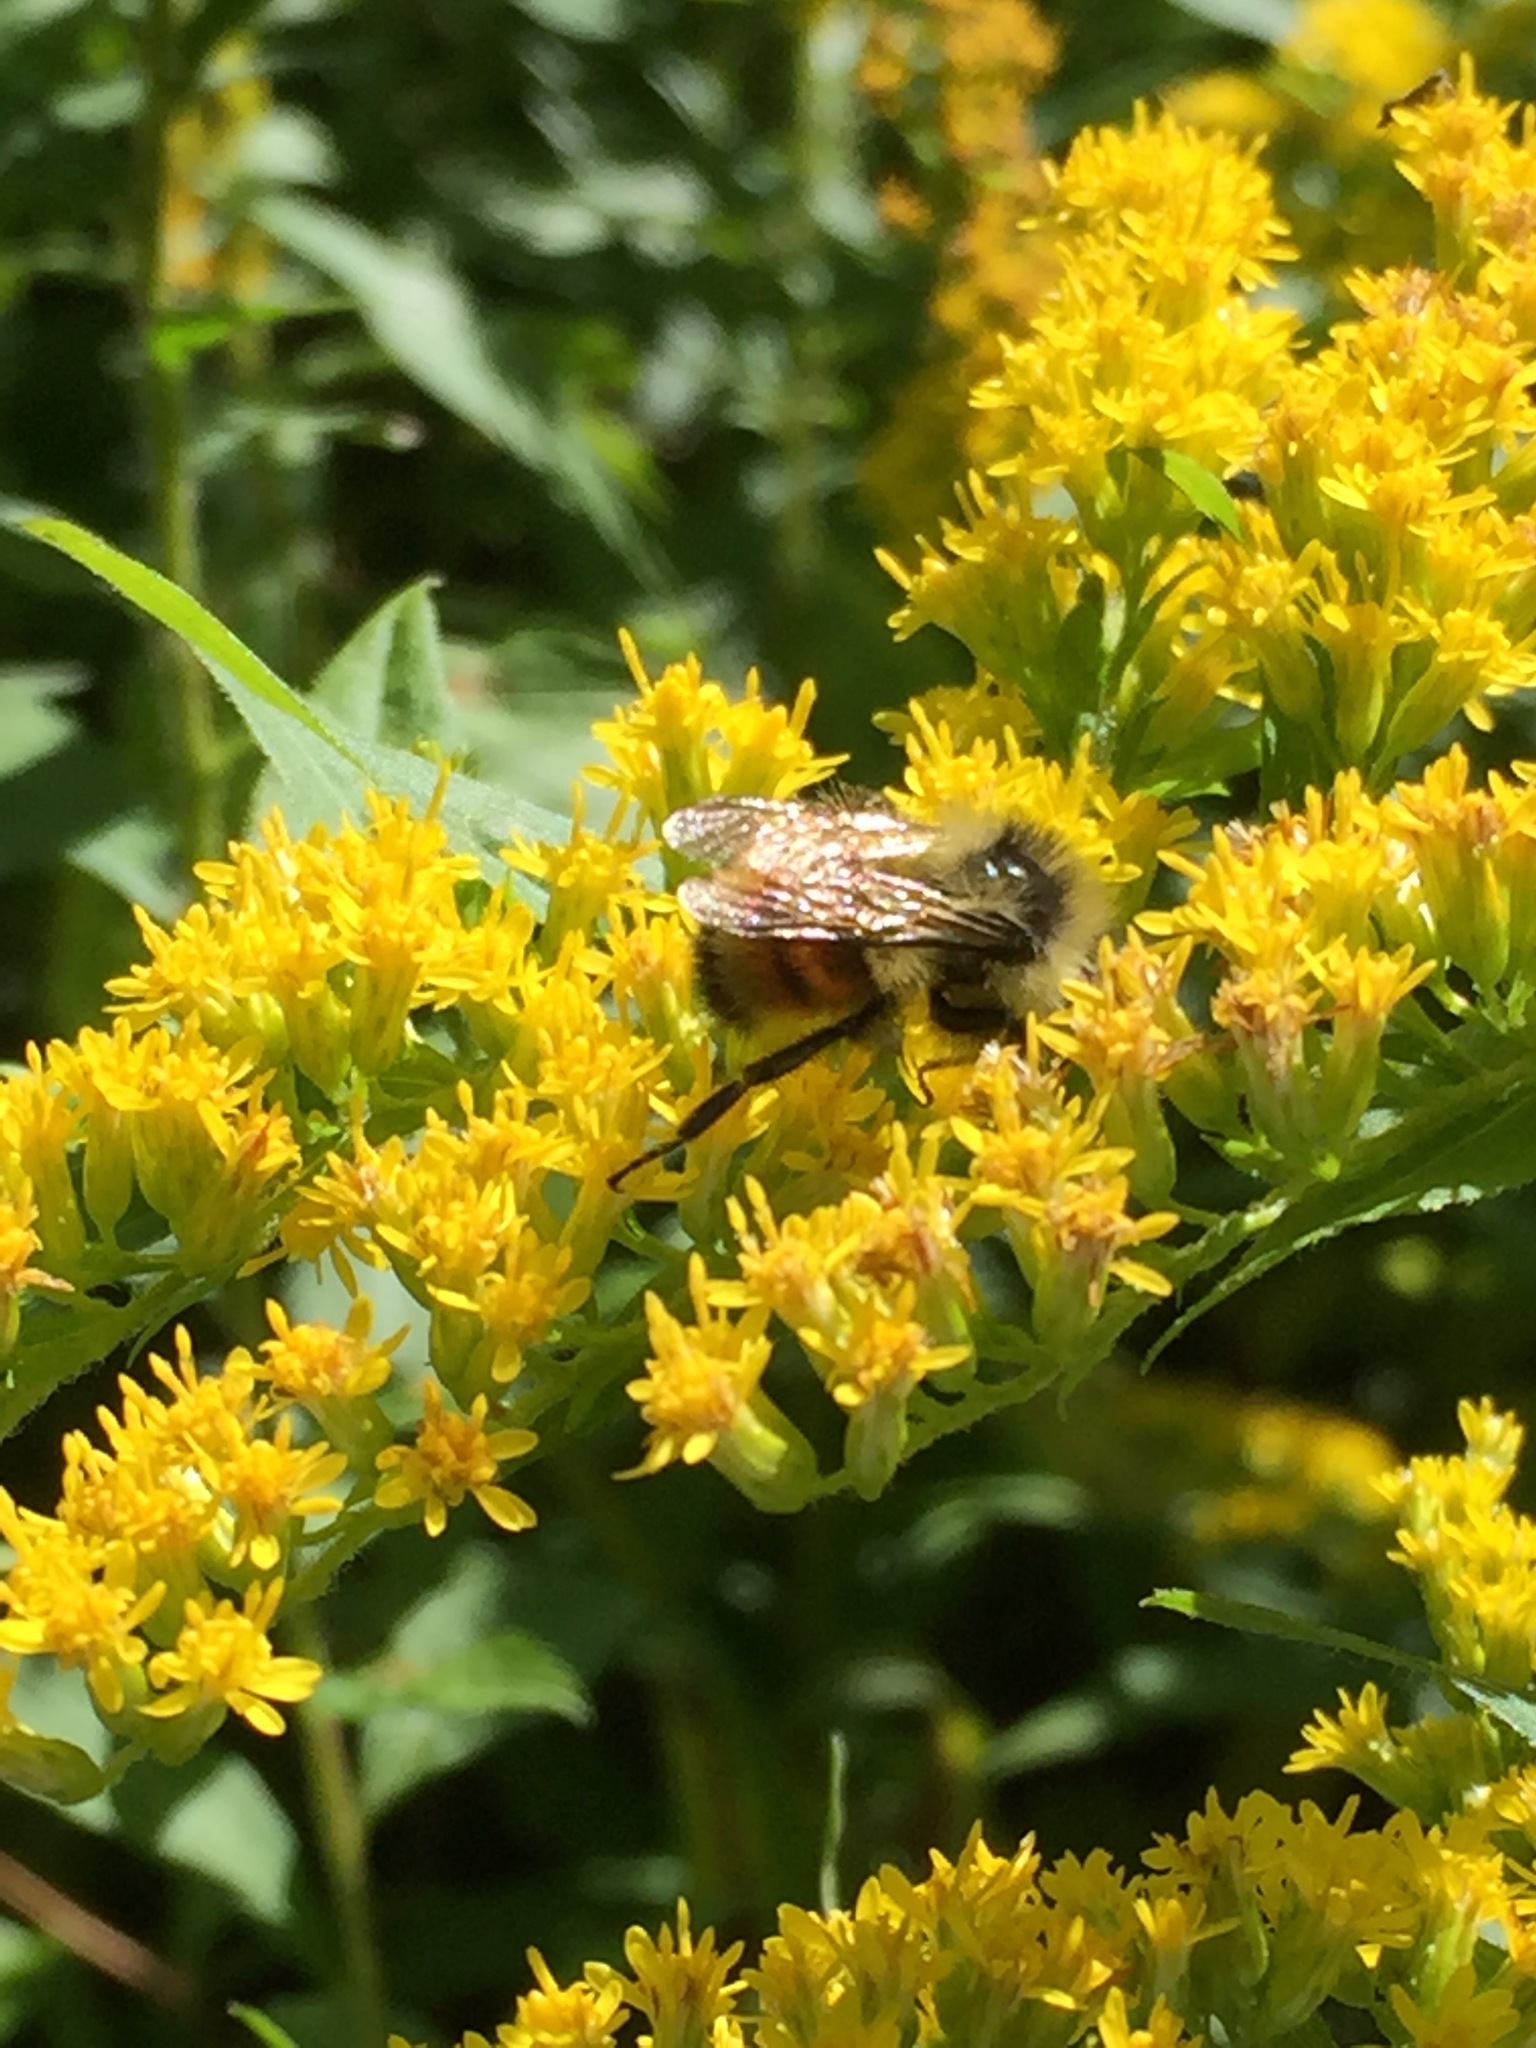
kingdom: Animalia
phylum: Arthropoda
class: Insecta
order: Hymenoptera
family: Apidae
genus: Bombus
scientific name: Bombus ternarius
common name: Tri-colored bumble bee
